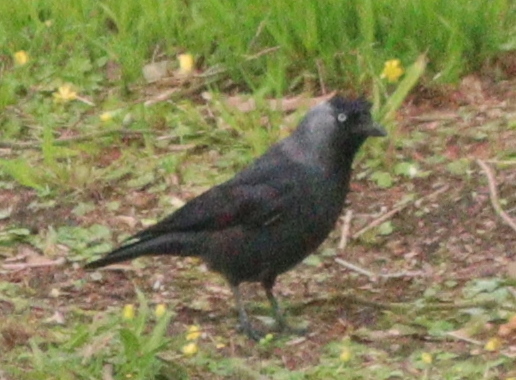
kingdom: Animalia
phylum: Chordata
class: Aves
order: Passeriformes
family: Corvidae
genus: Coloeus
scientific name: Coloeus monedula
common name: Western jackdaw
